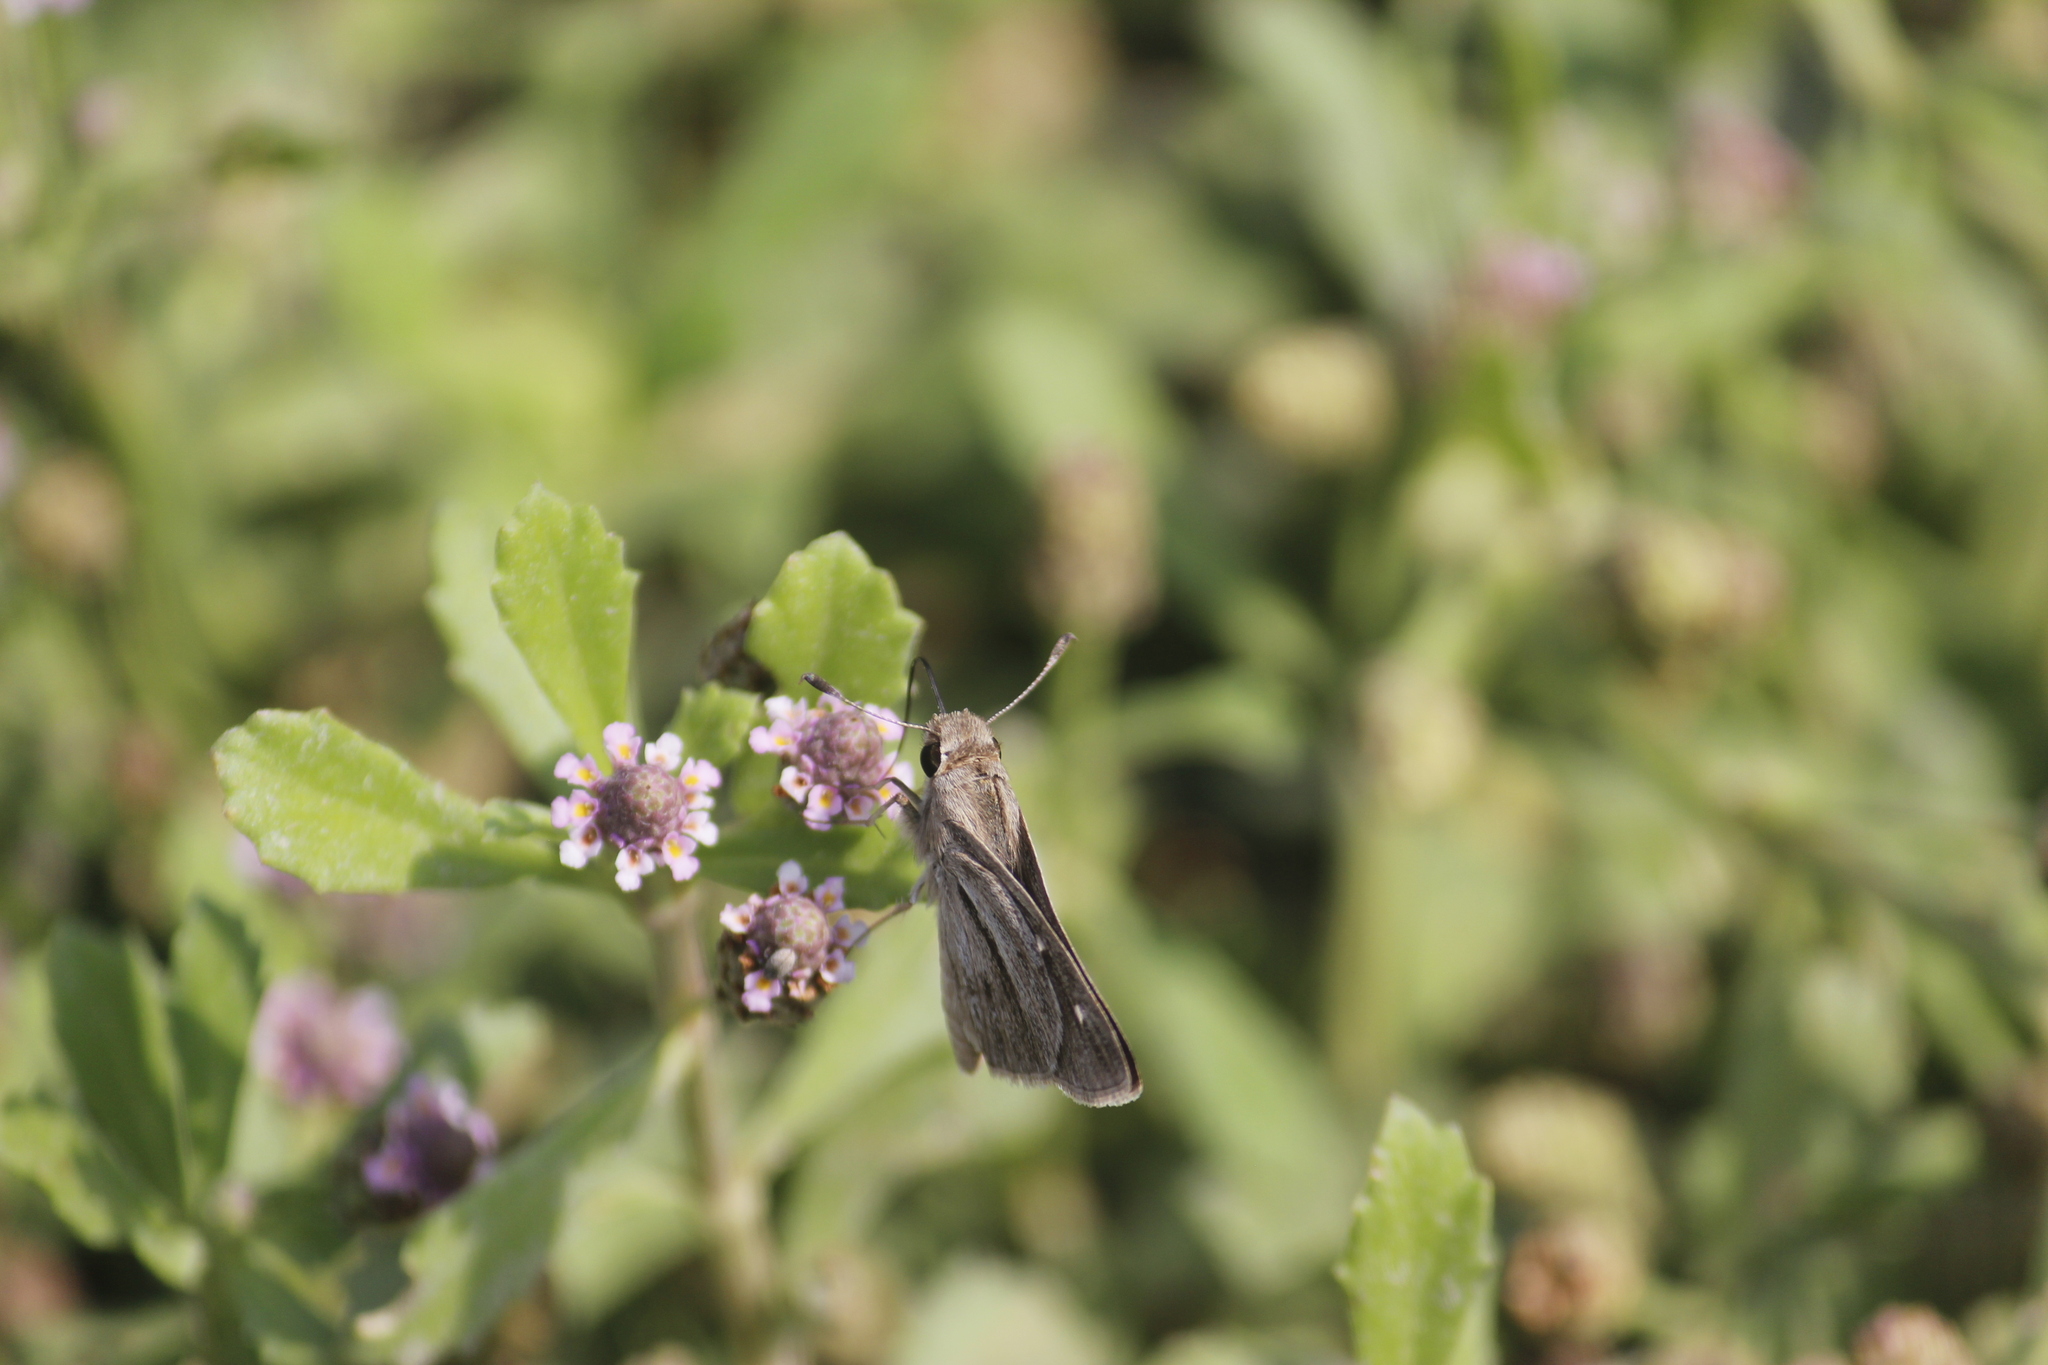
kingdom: Animalia
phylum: Arthropoda
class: Insecta
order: Lepidoptera
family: Hesperiidae
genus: Lerodea
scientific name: Lerodea gracia
